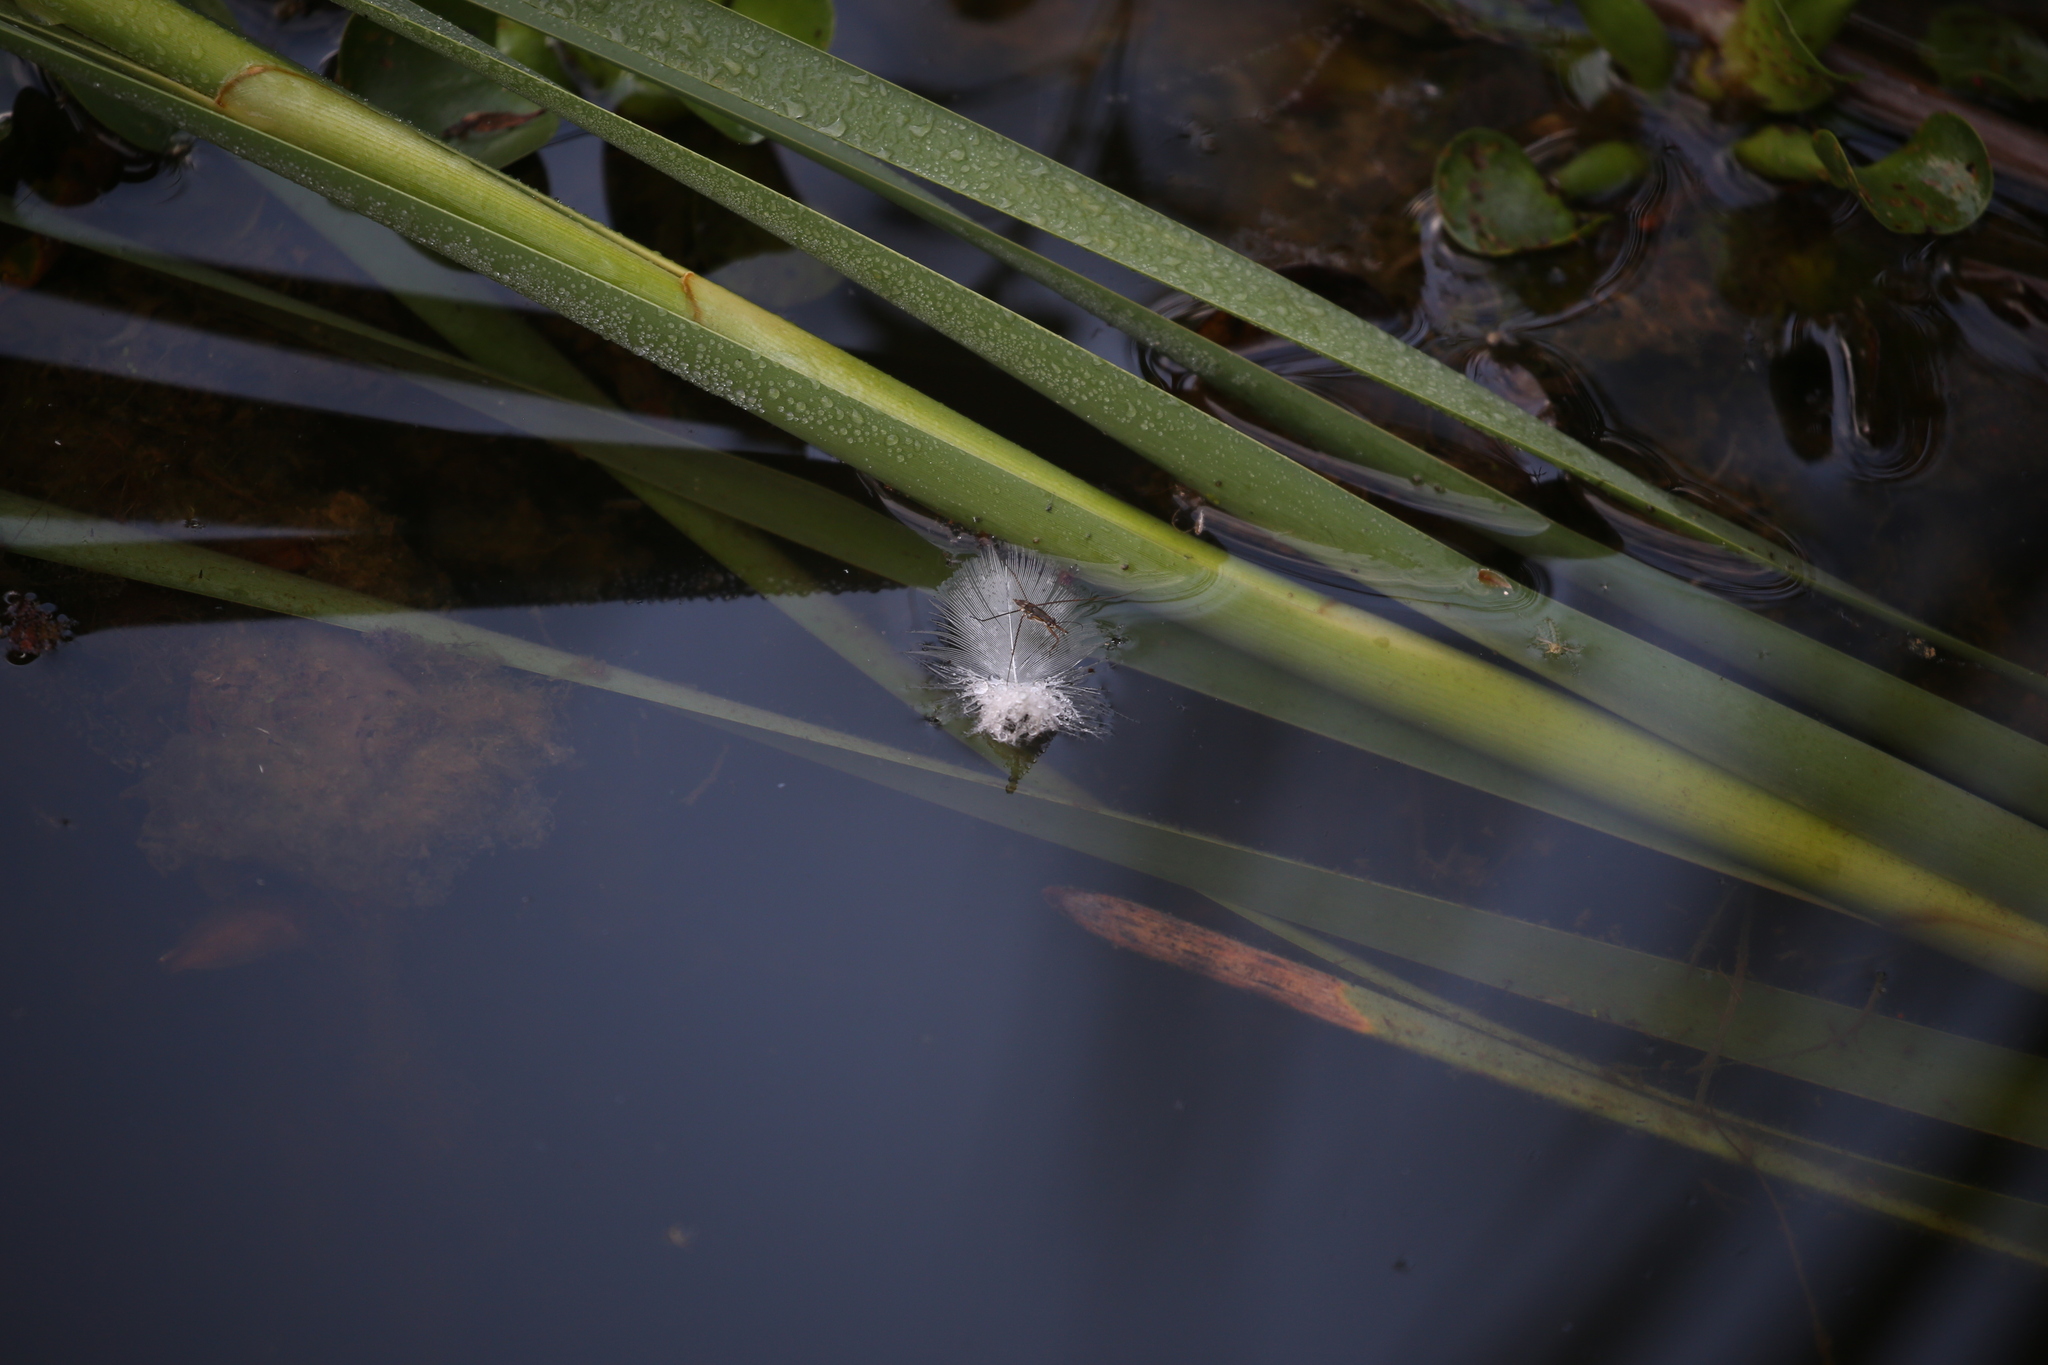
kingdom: Animalia
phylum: Arthropoda
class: Insecta
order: Hemiptera
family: Gerridae
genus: Limnogonus
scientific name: Limnogonus
